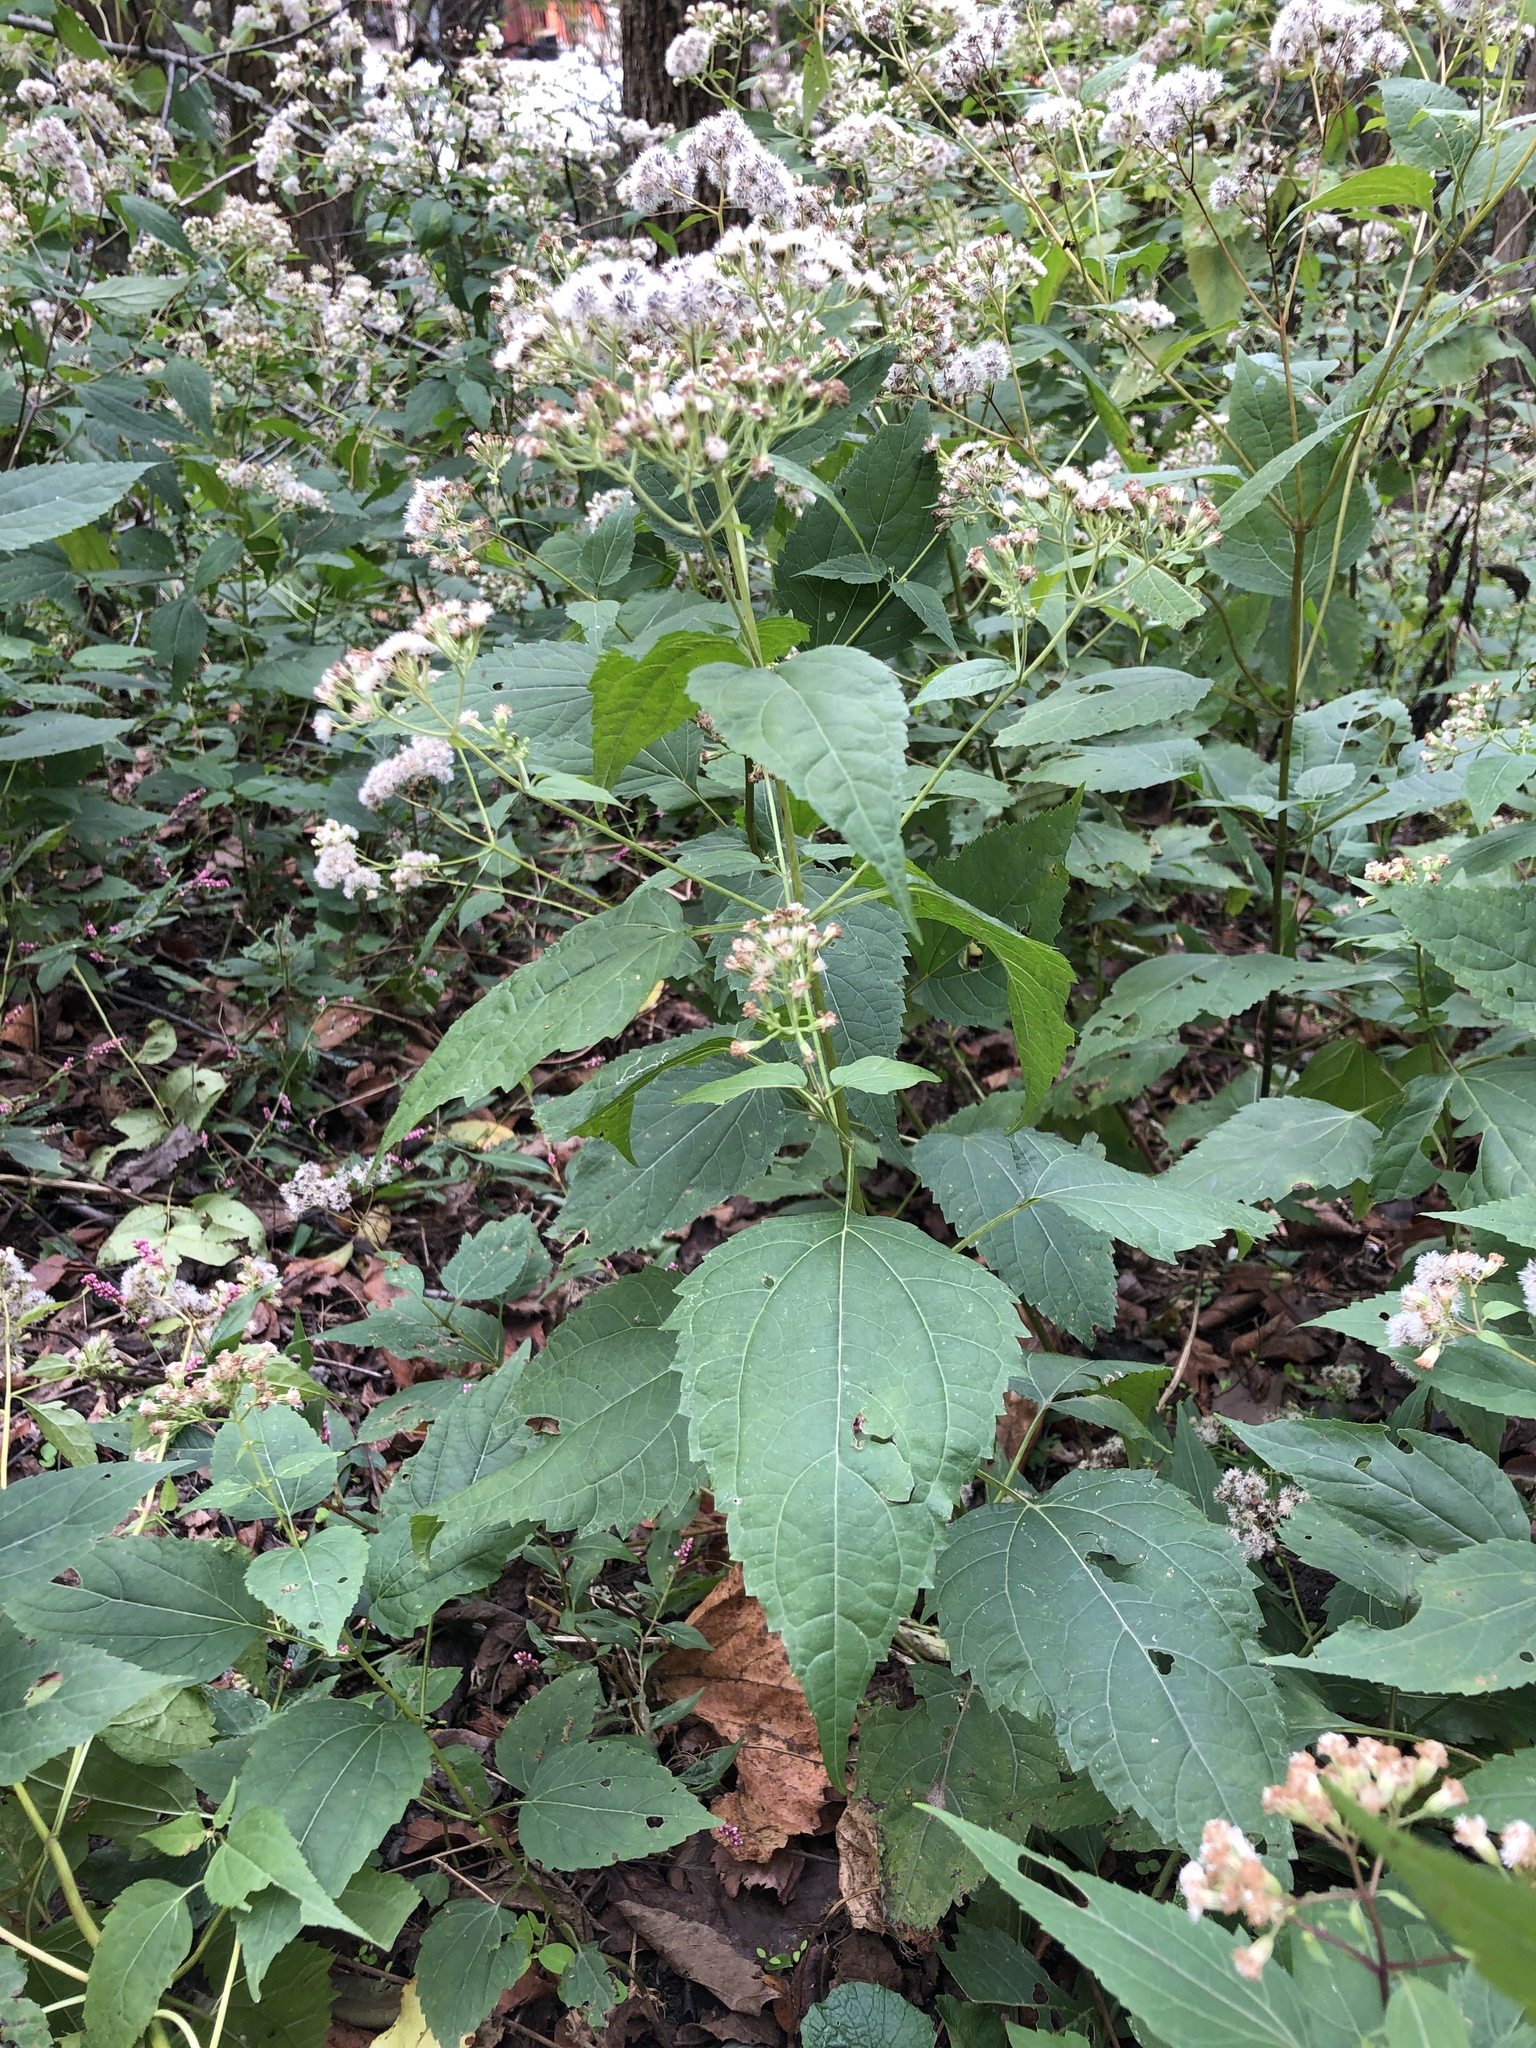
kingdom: Plantae
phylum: Tracheophyta
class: Magnoliopsida
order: Asterales
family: Asteraceae
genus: Ageratina
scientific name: Ageratina altissima
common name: White snakeroot
